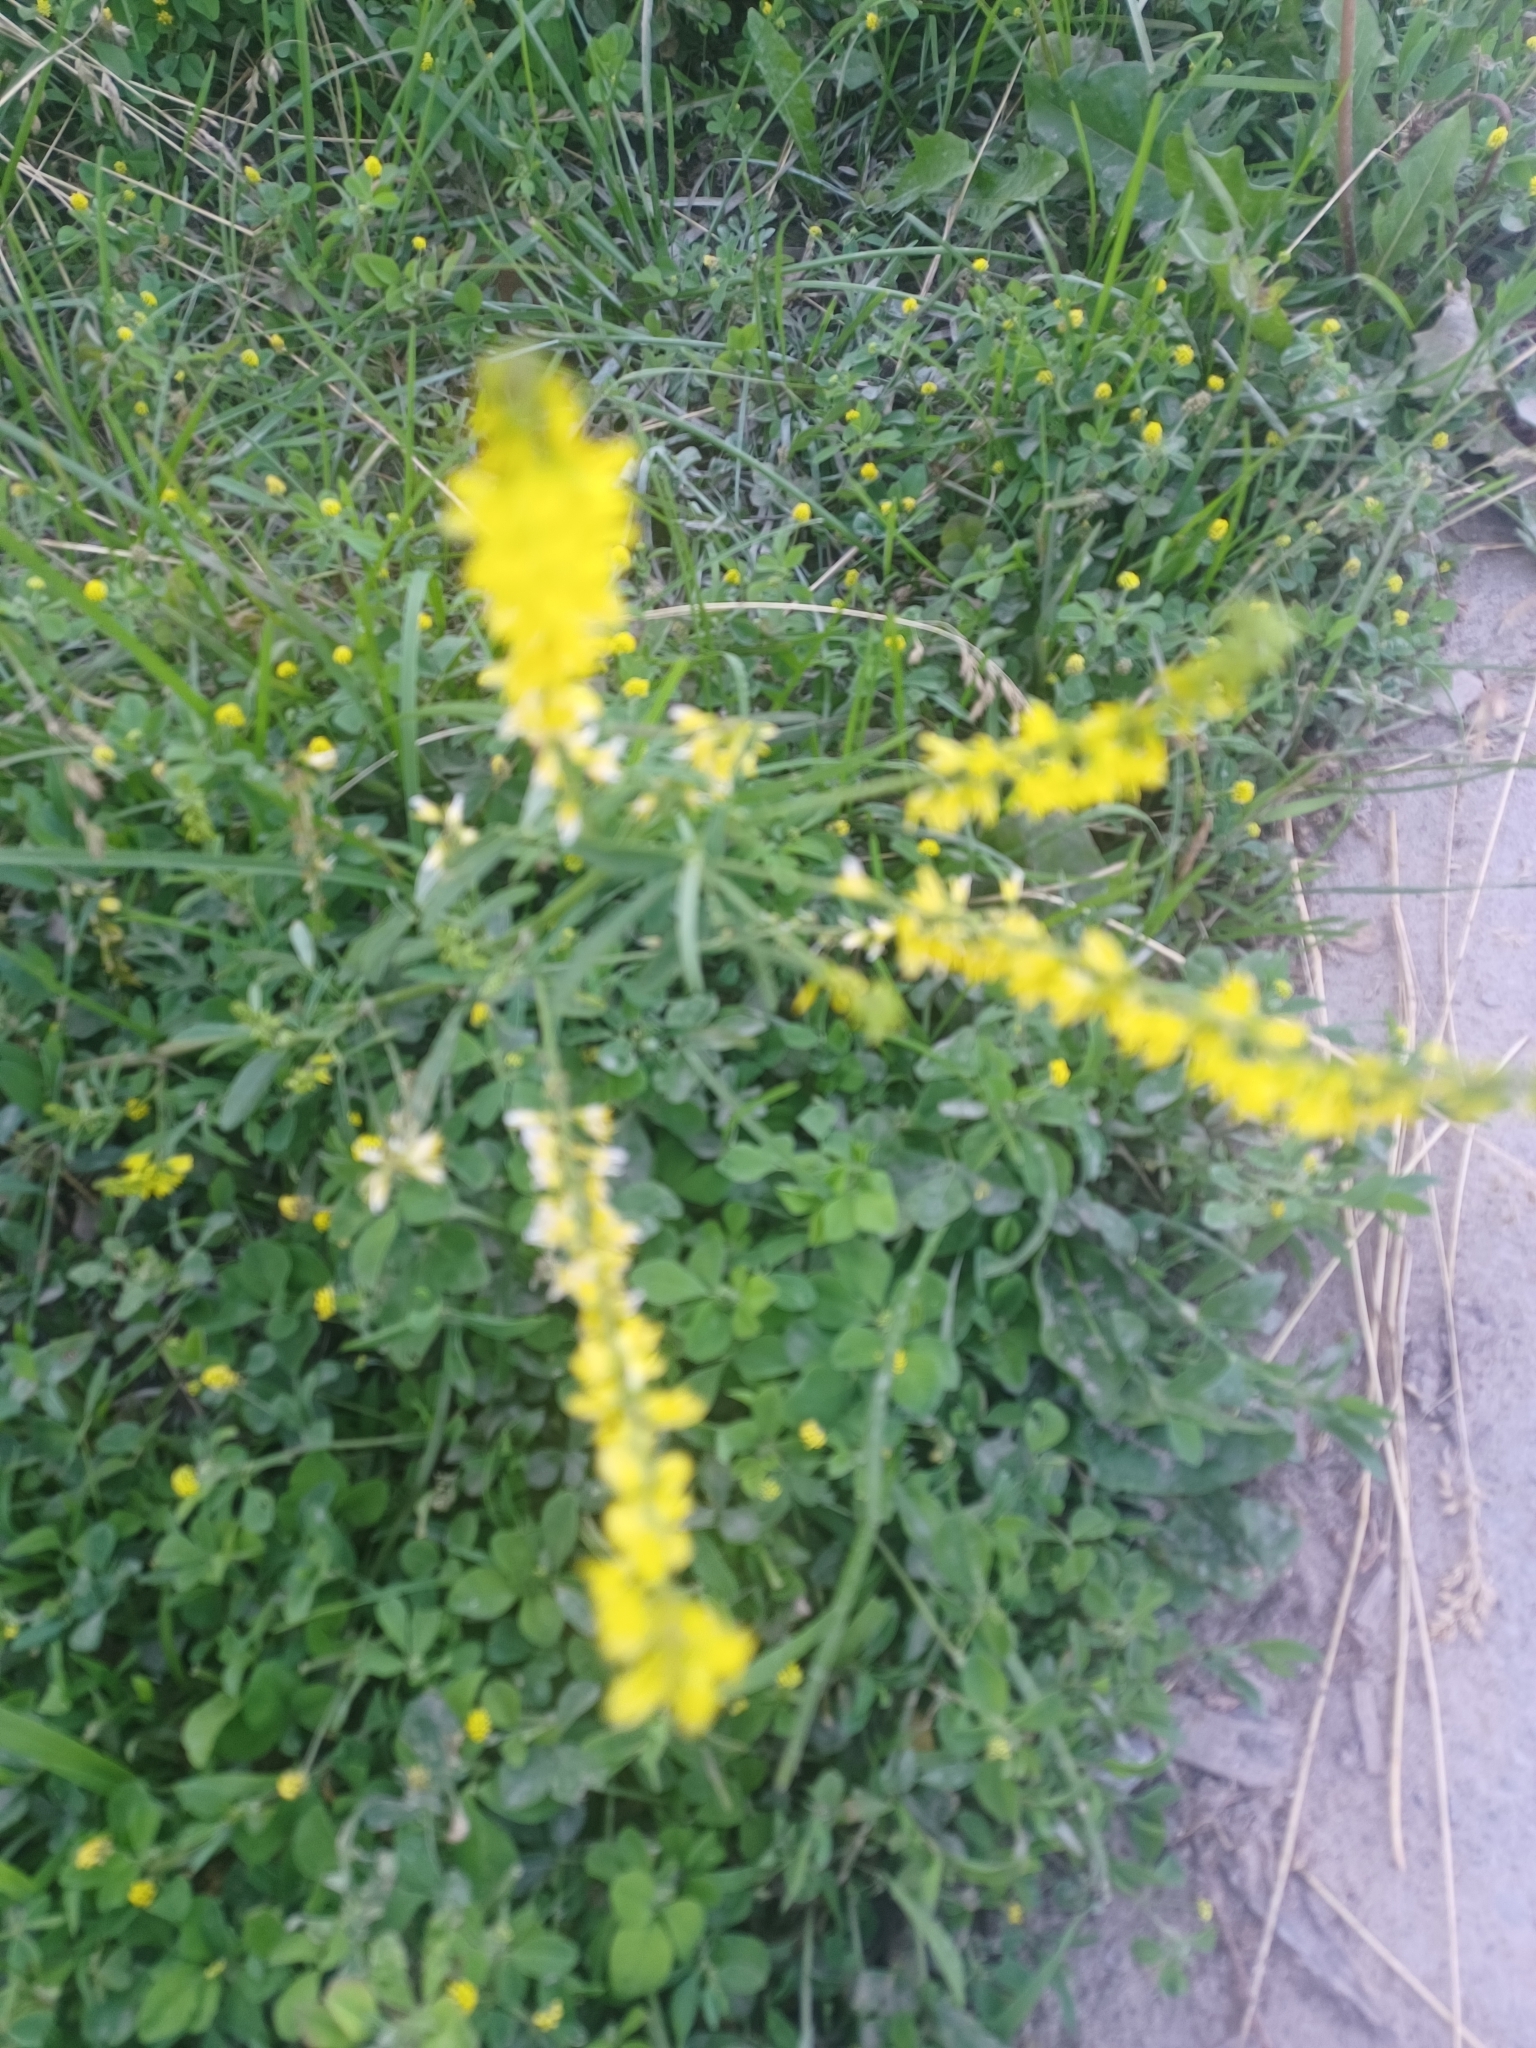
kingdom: Plantae
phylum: Tracheophyta
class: Magnoliopsida
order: Fabales
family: Fabaceae
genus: Melilotus
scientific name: Melilotus officinalis
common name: Sweetclover
